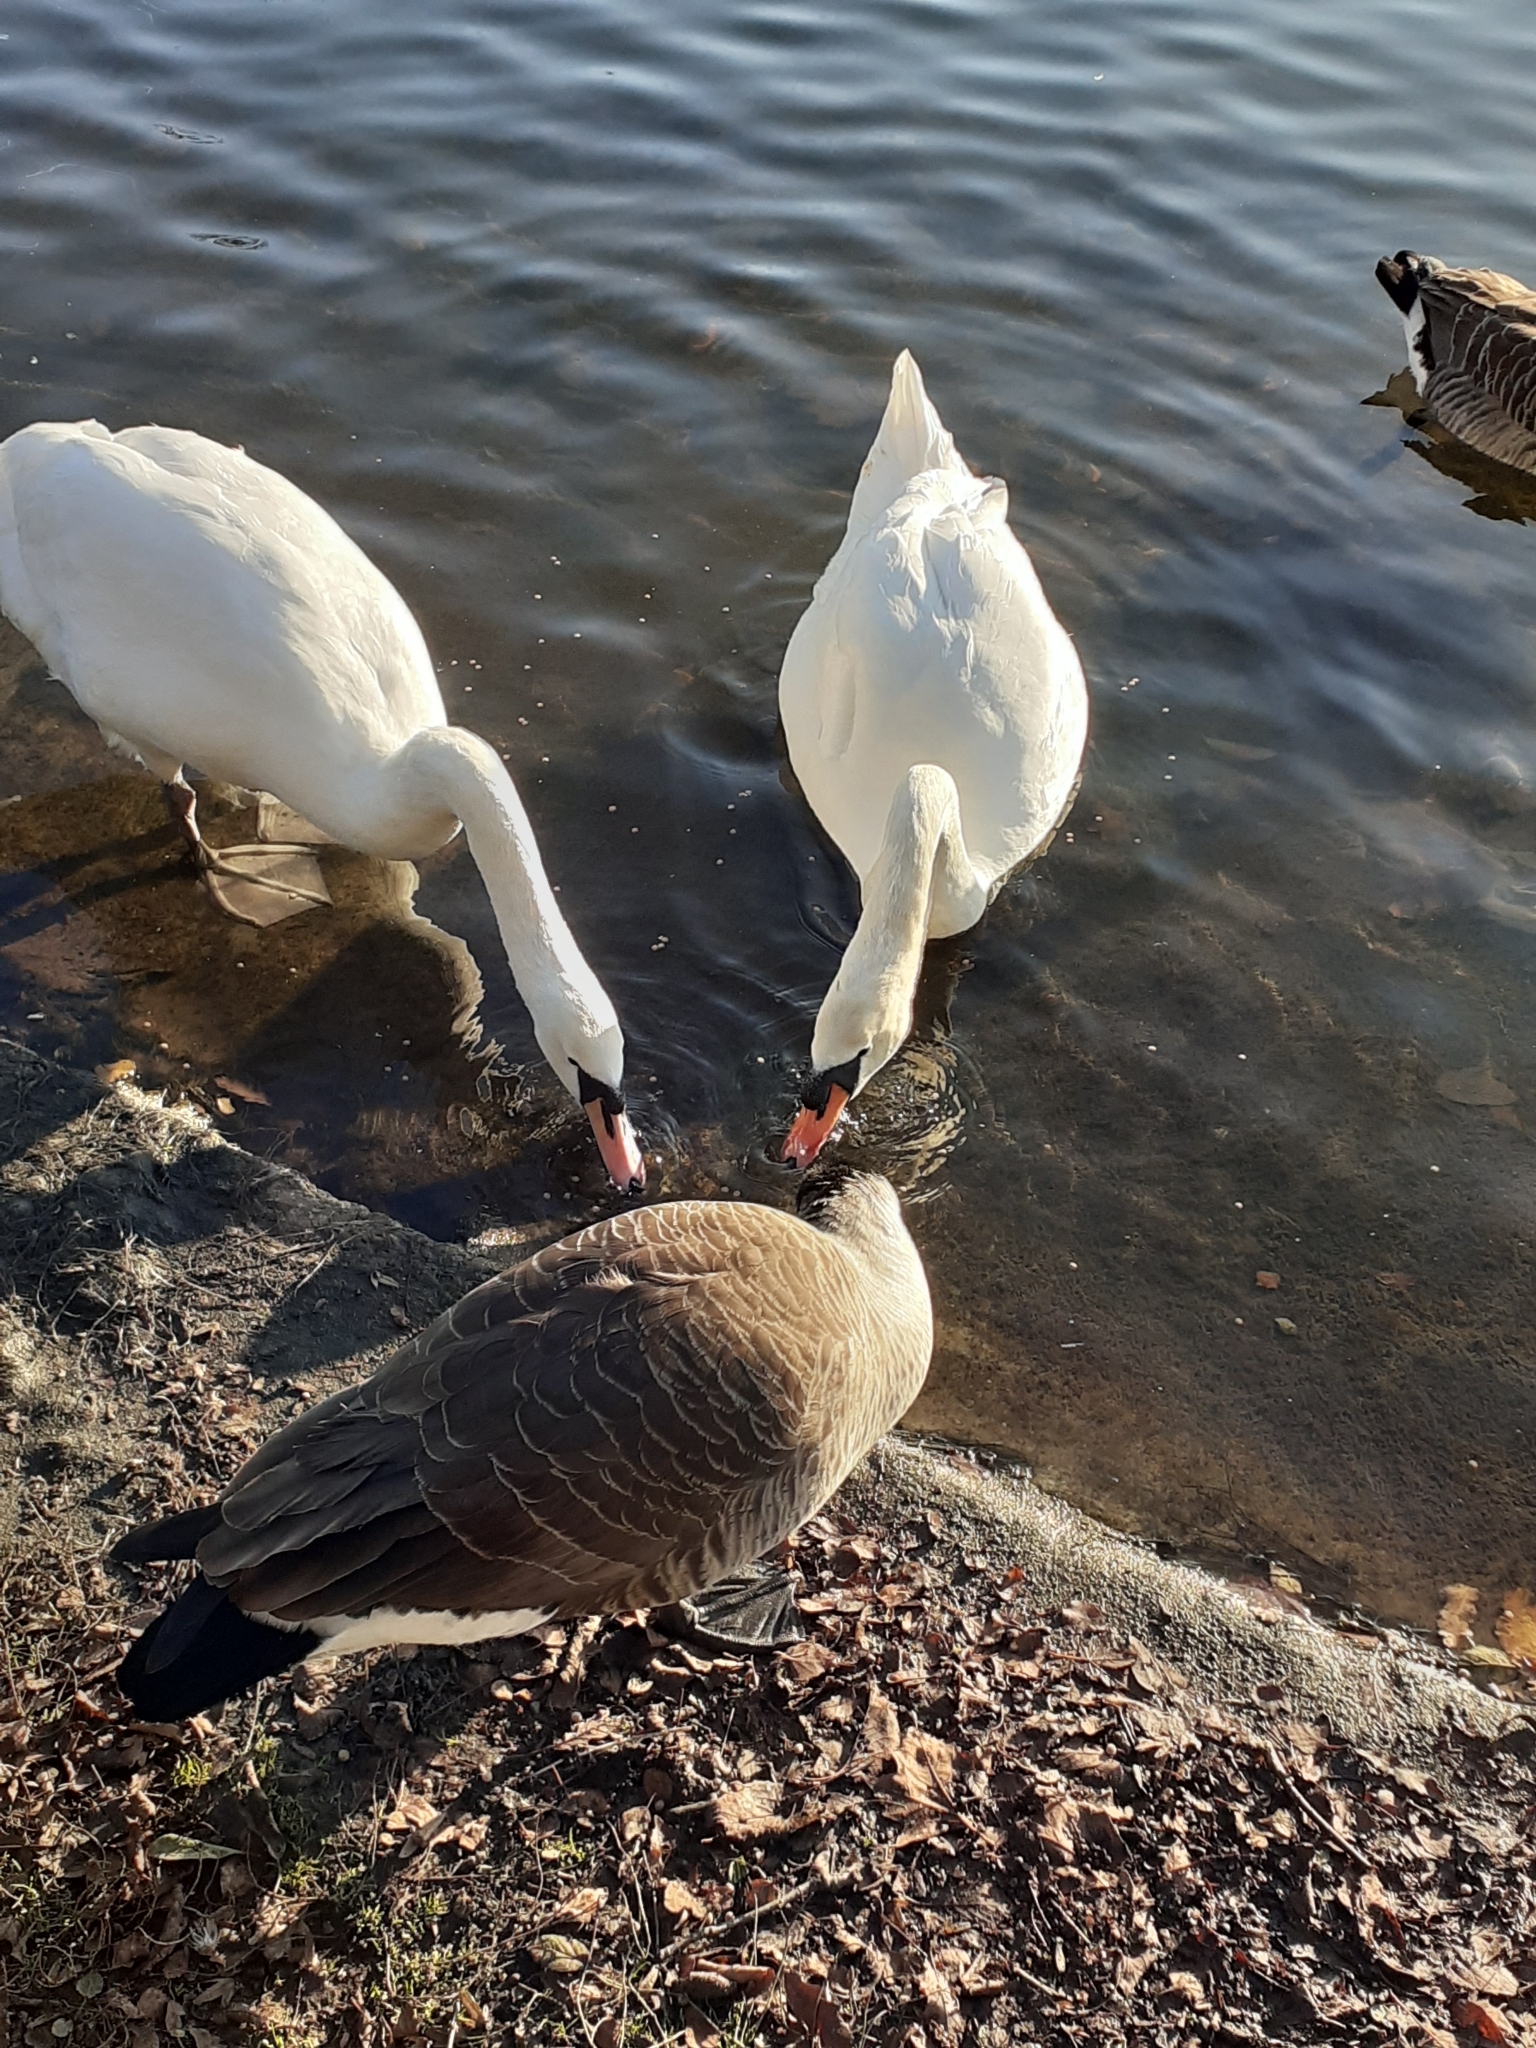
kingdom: Animalia
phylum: Chordata
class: Aves
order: Anseriformes
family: Anatidae
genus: Cygnus
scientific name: Cygnus olor
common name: Mute swan
